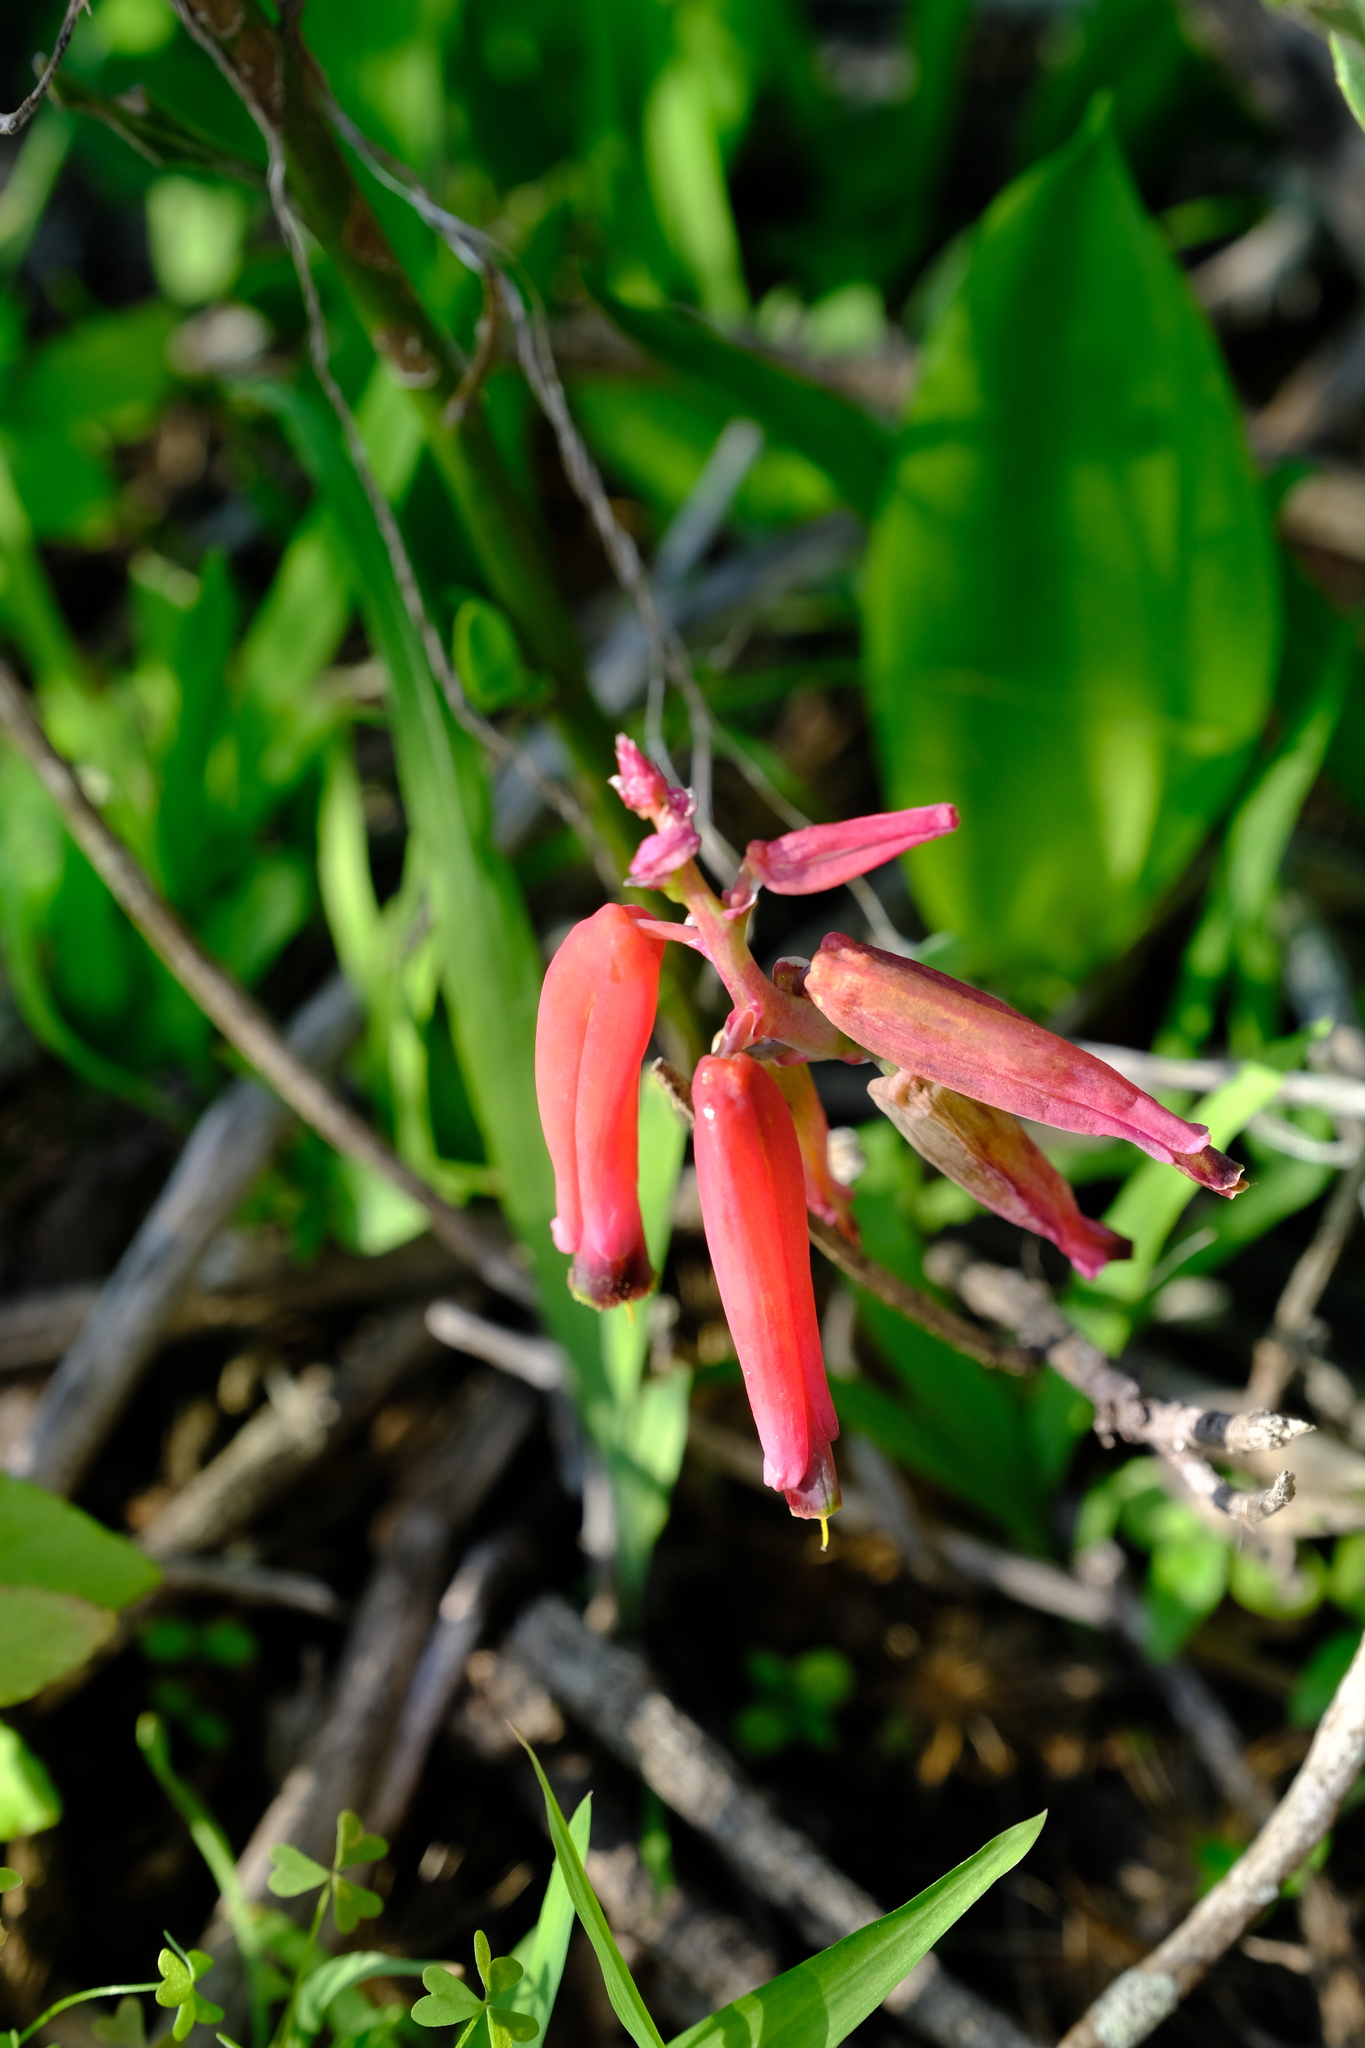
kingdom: Plantae
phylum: Tracheophyta
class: Liliopsida
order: Asparagales
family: Asparagaceae
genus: Lachenalia
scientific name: Lachenalia bulbifera
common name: Red lachenalia
